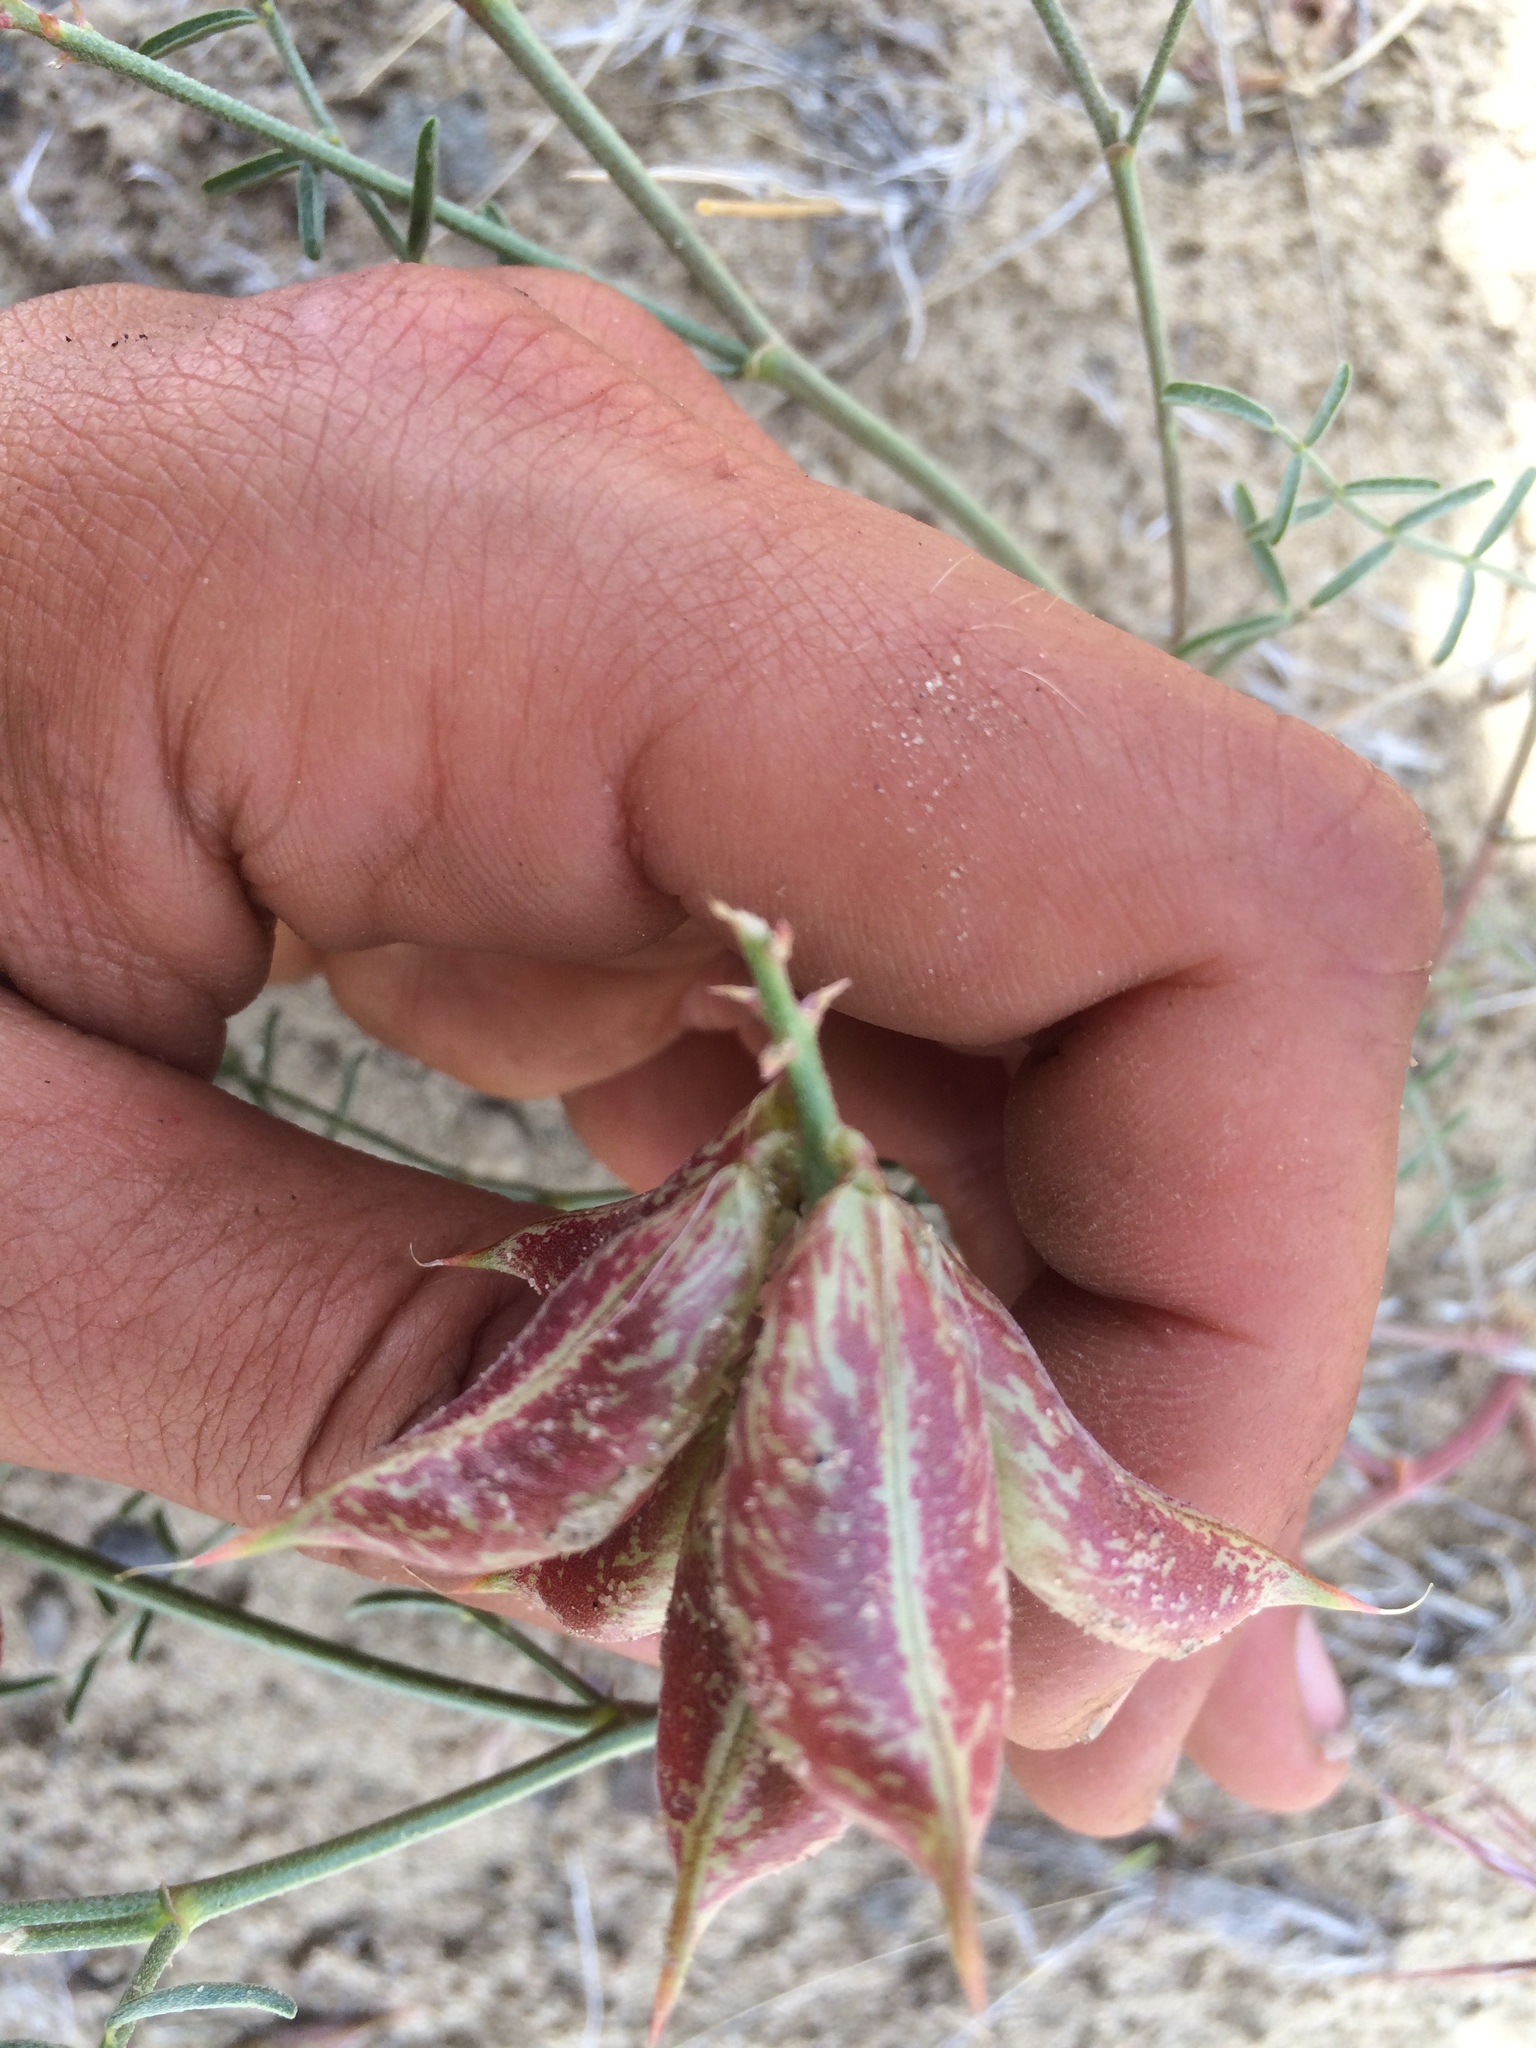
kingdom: Plantae
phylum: Tracheophyta
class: Magnoliopsida
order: Fabales
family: Fabaceae
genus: Astragalus
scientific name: Astragalus casei
